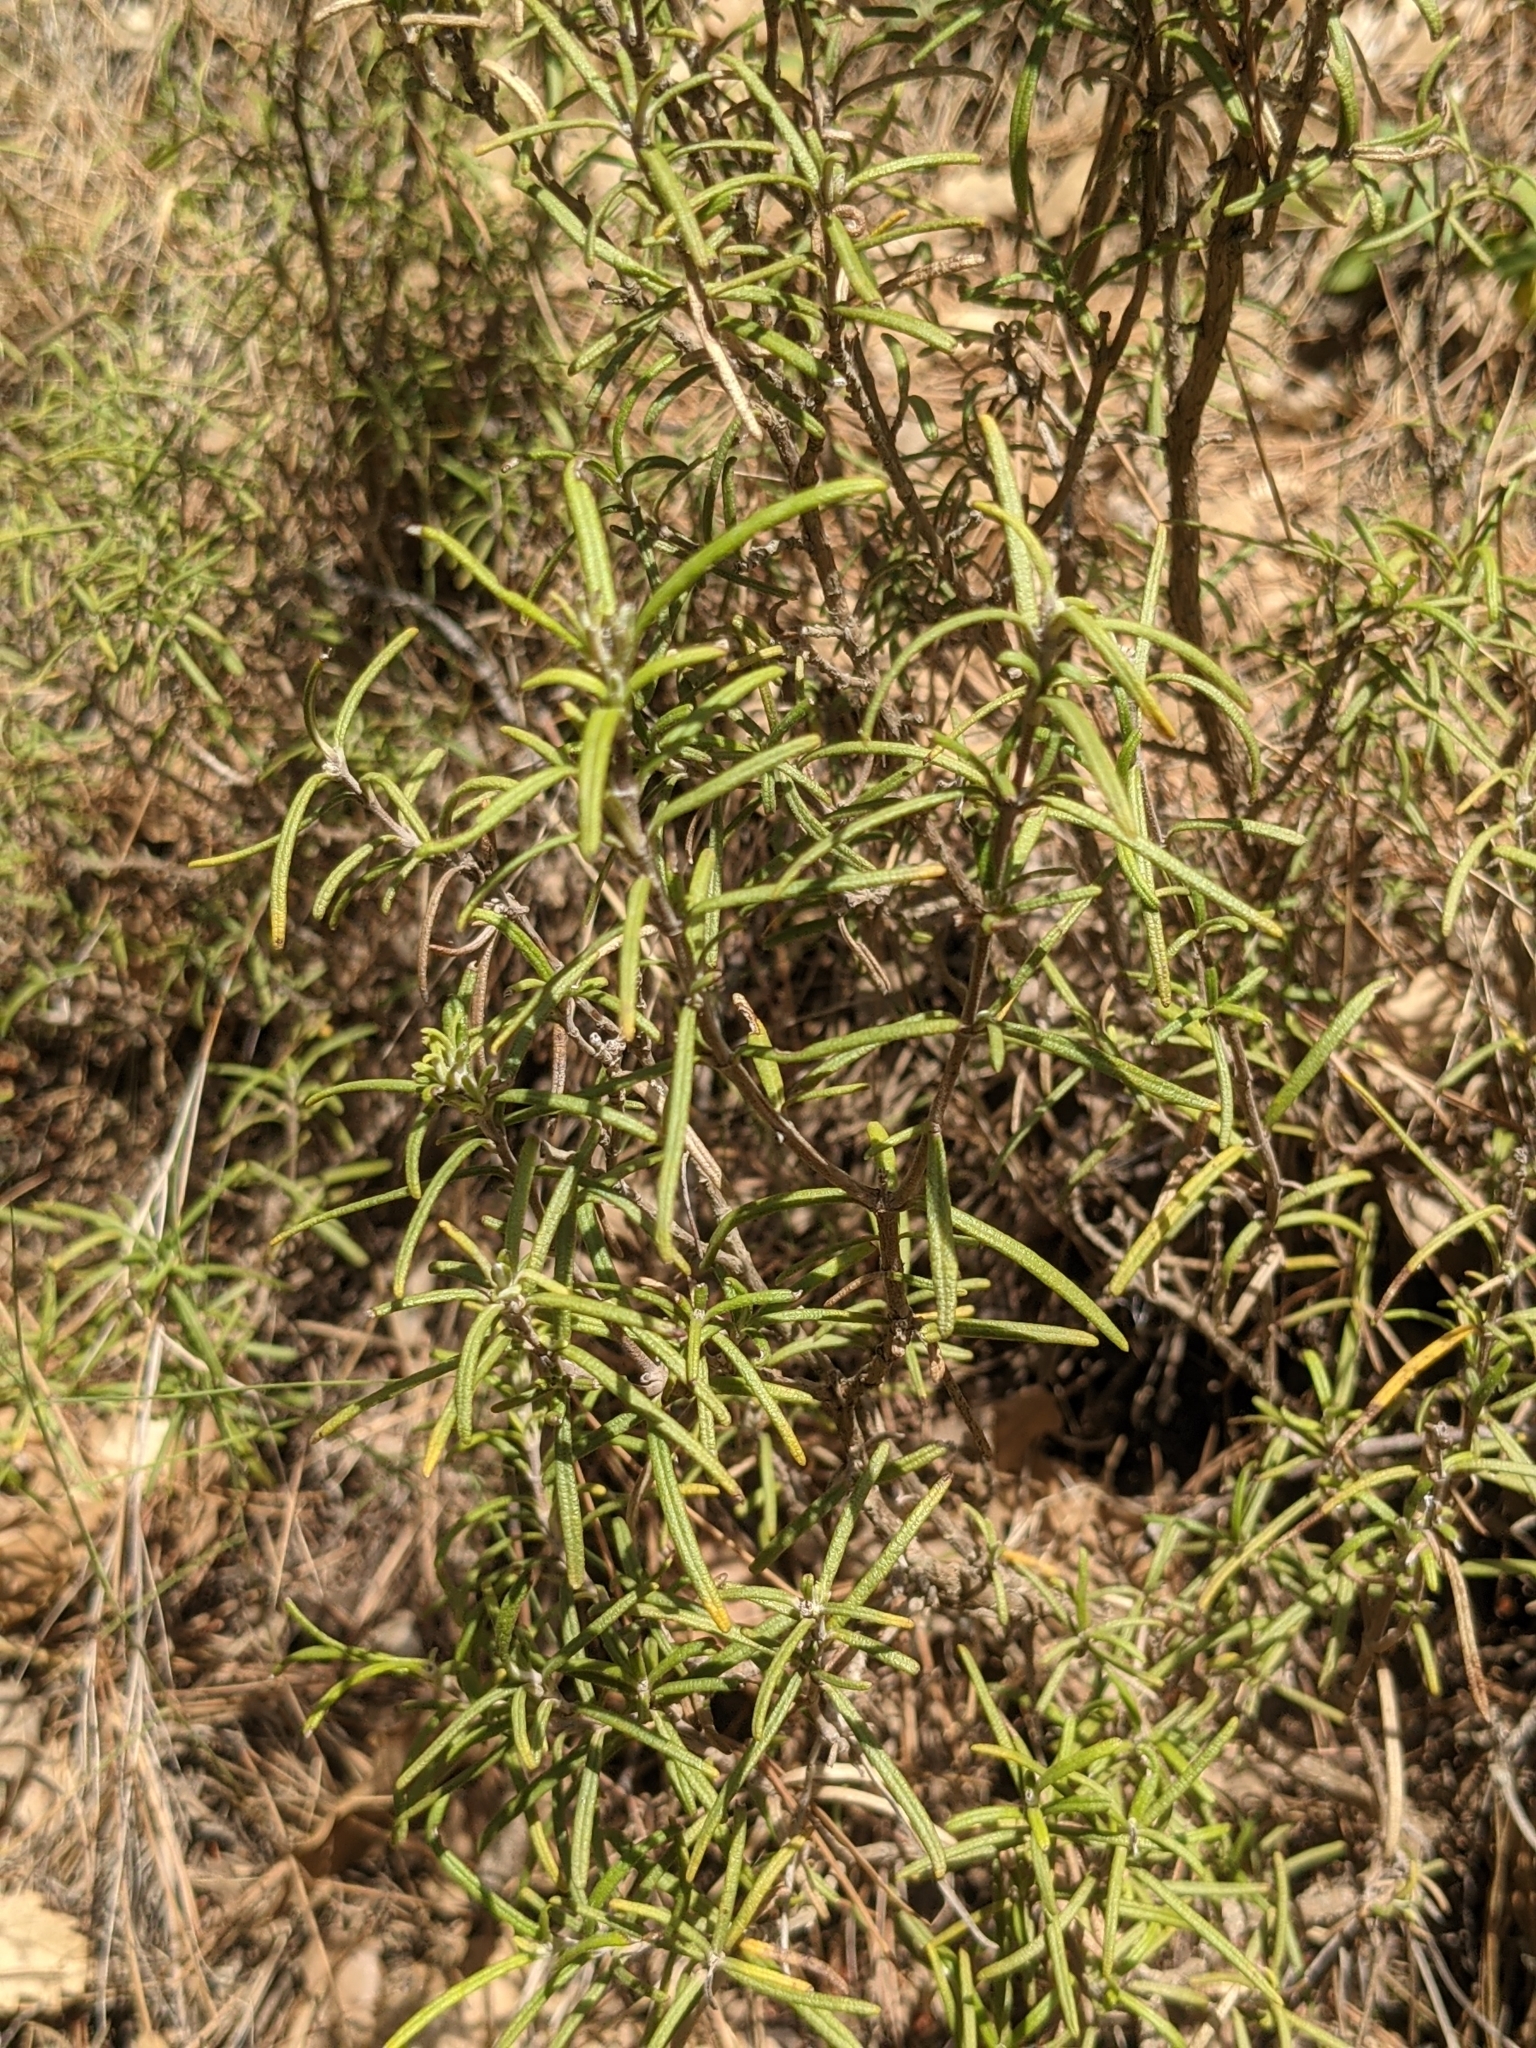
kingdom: Plantae
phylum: Tracheophyta
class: Magnoliopsida
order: Lamiales
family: Lamiaceae
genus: Salvia
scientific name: Salvia rosmarinus
